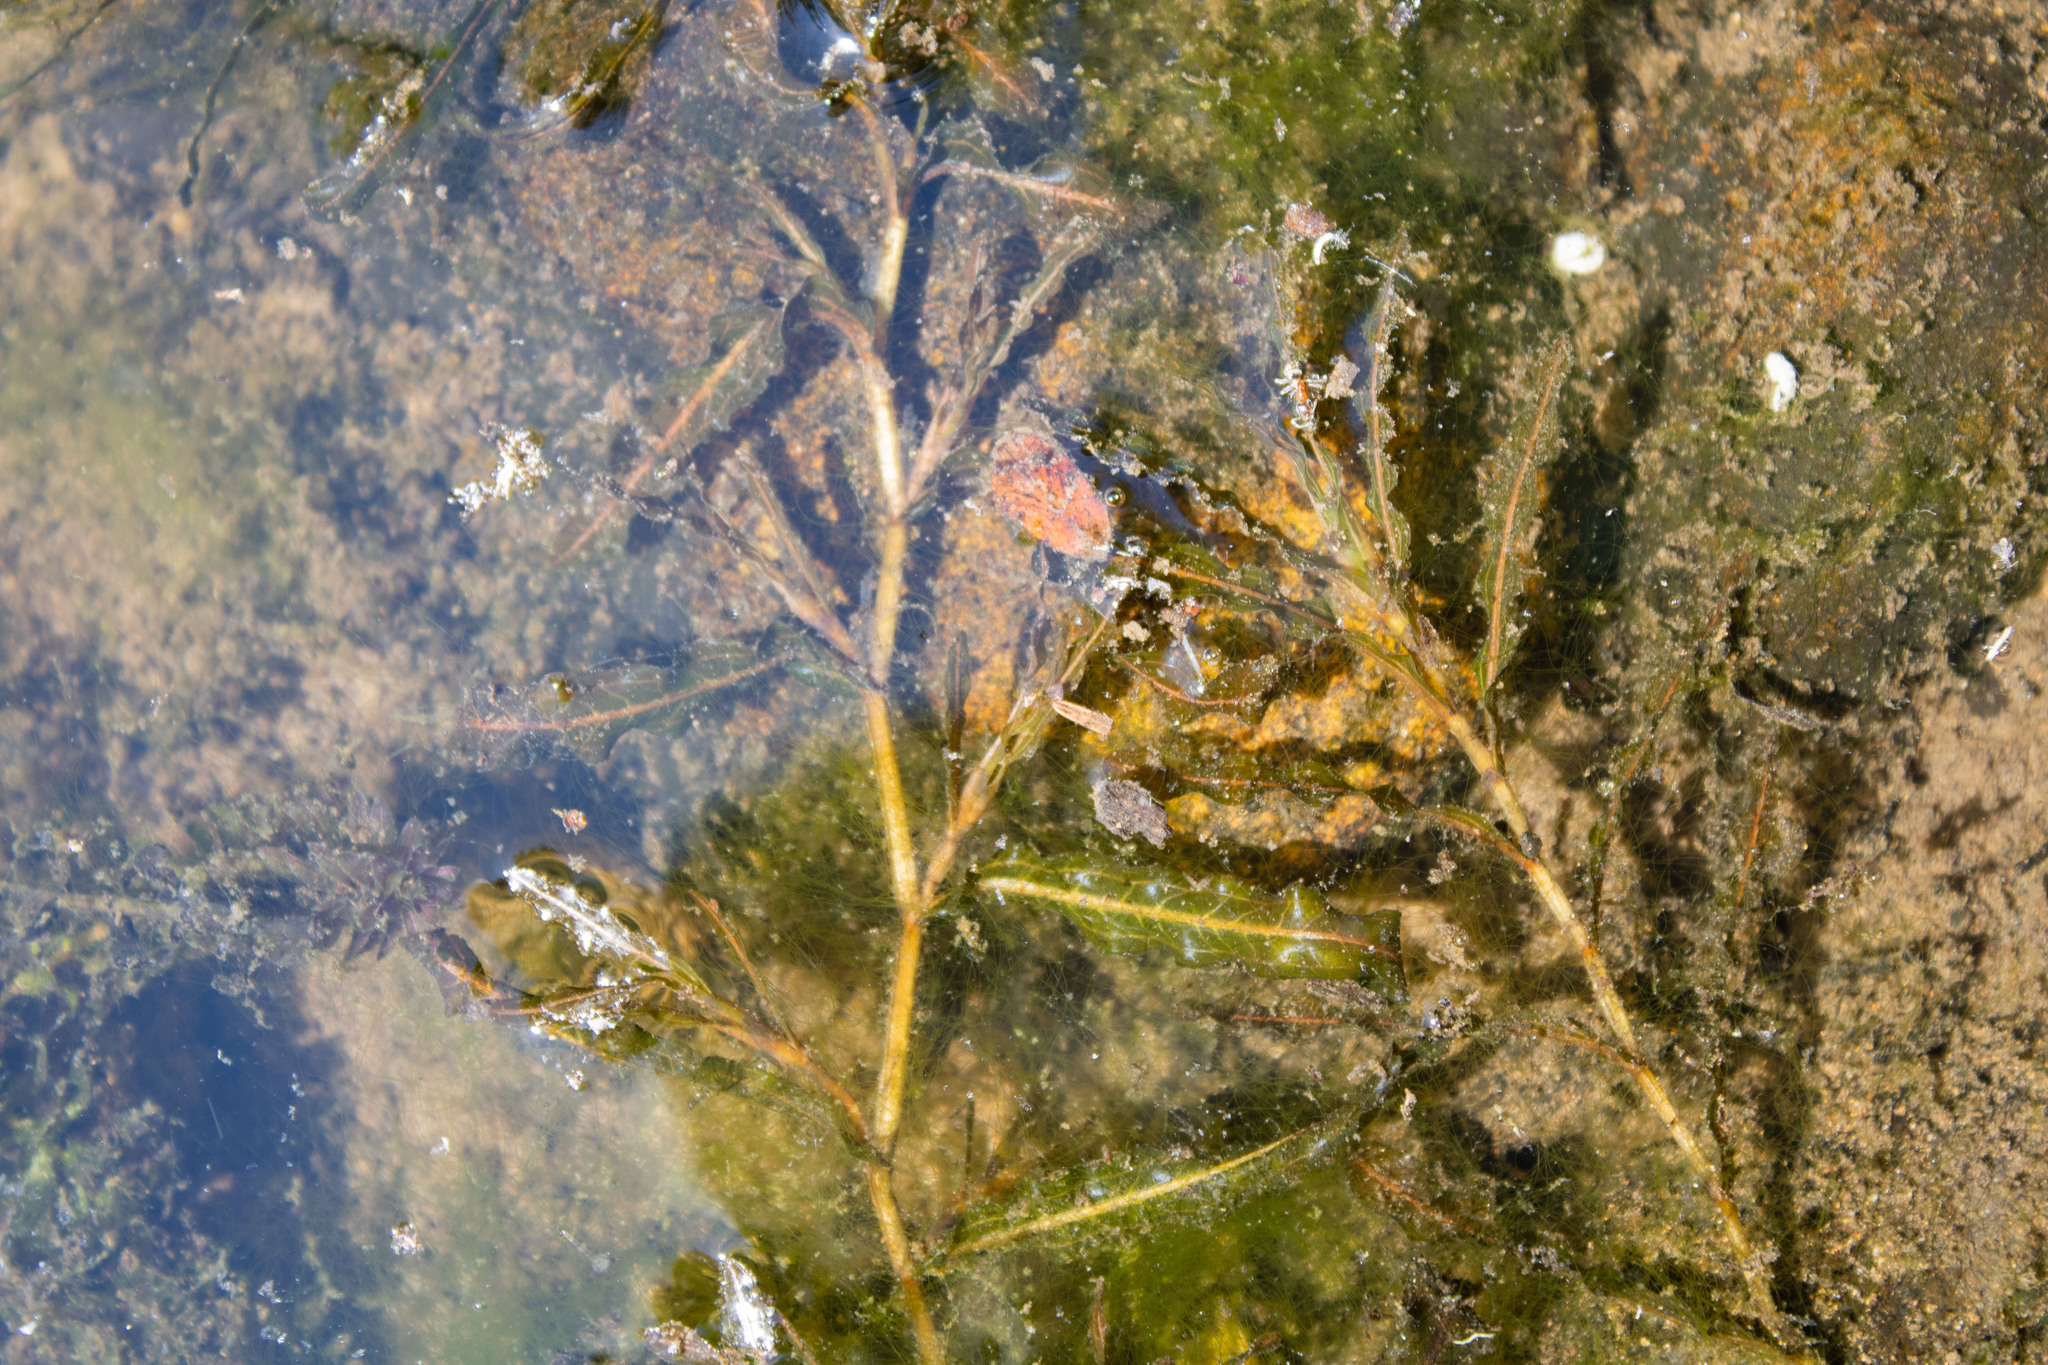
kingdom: Plantae
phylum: Tracheophyta
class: Liliopsida
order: Alismatales
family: Potamogetonaceae
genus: Potamogeton
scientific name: Potamogeton crispus
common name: Curled pondweed
